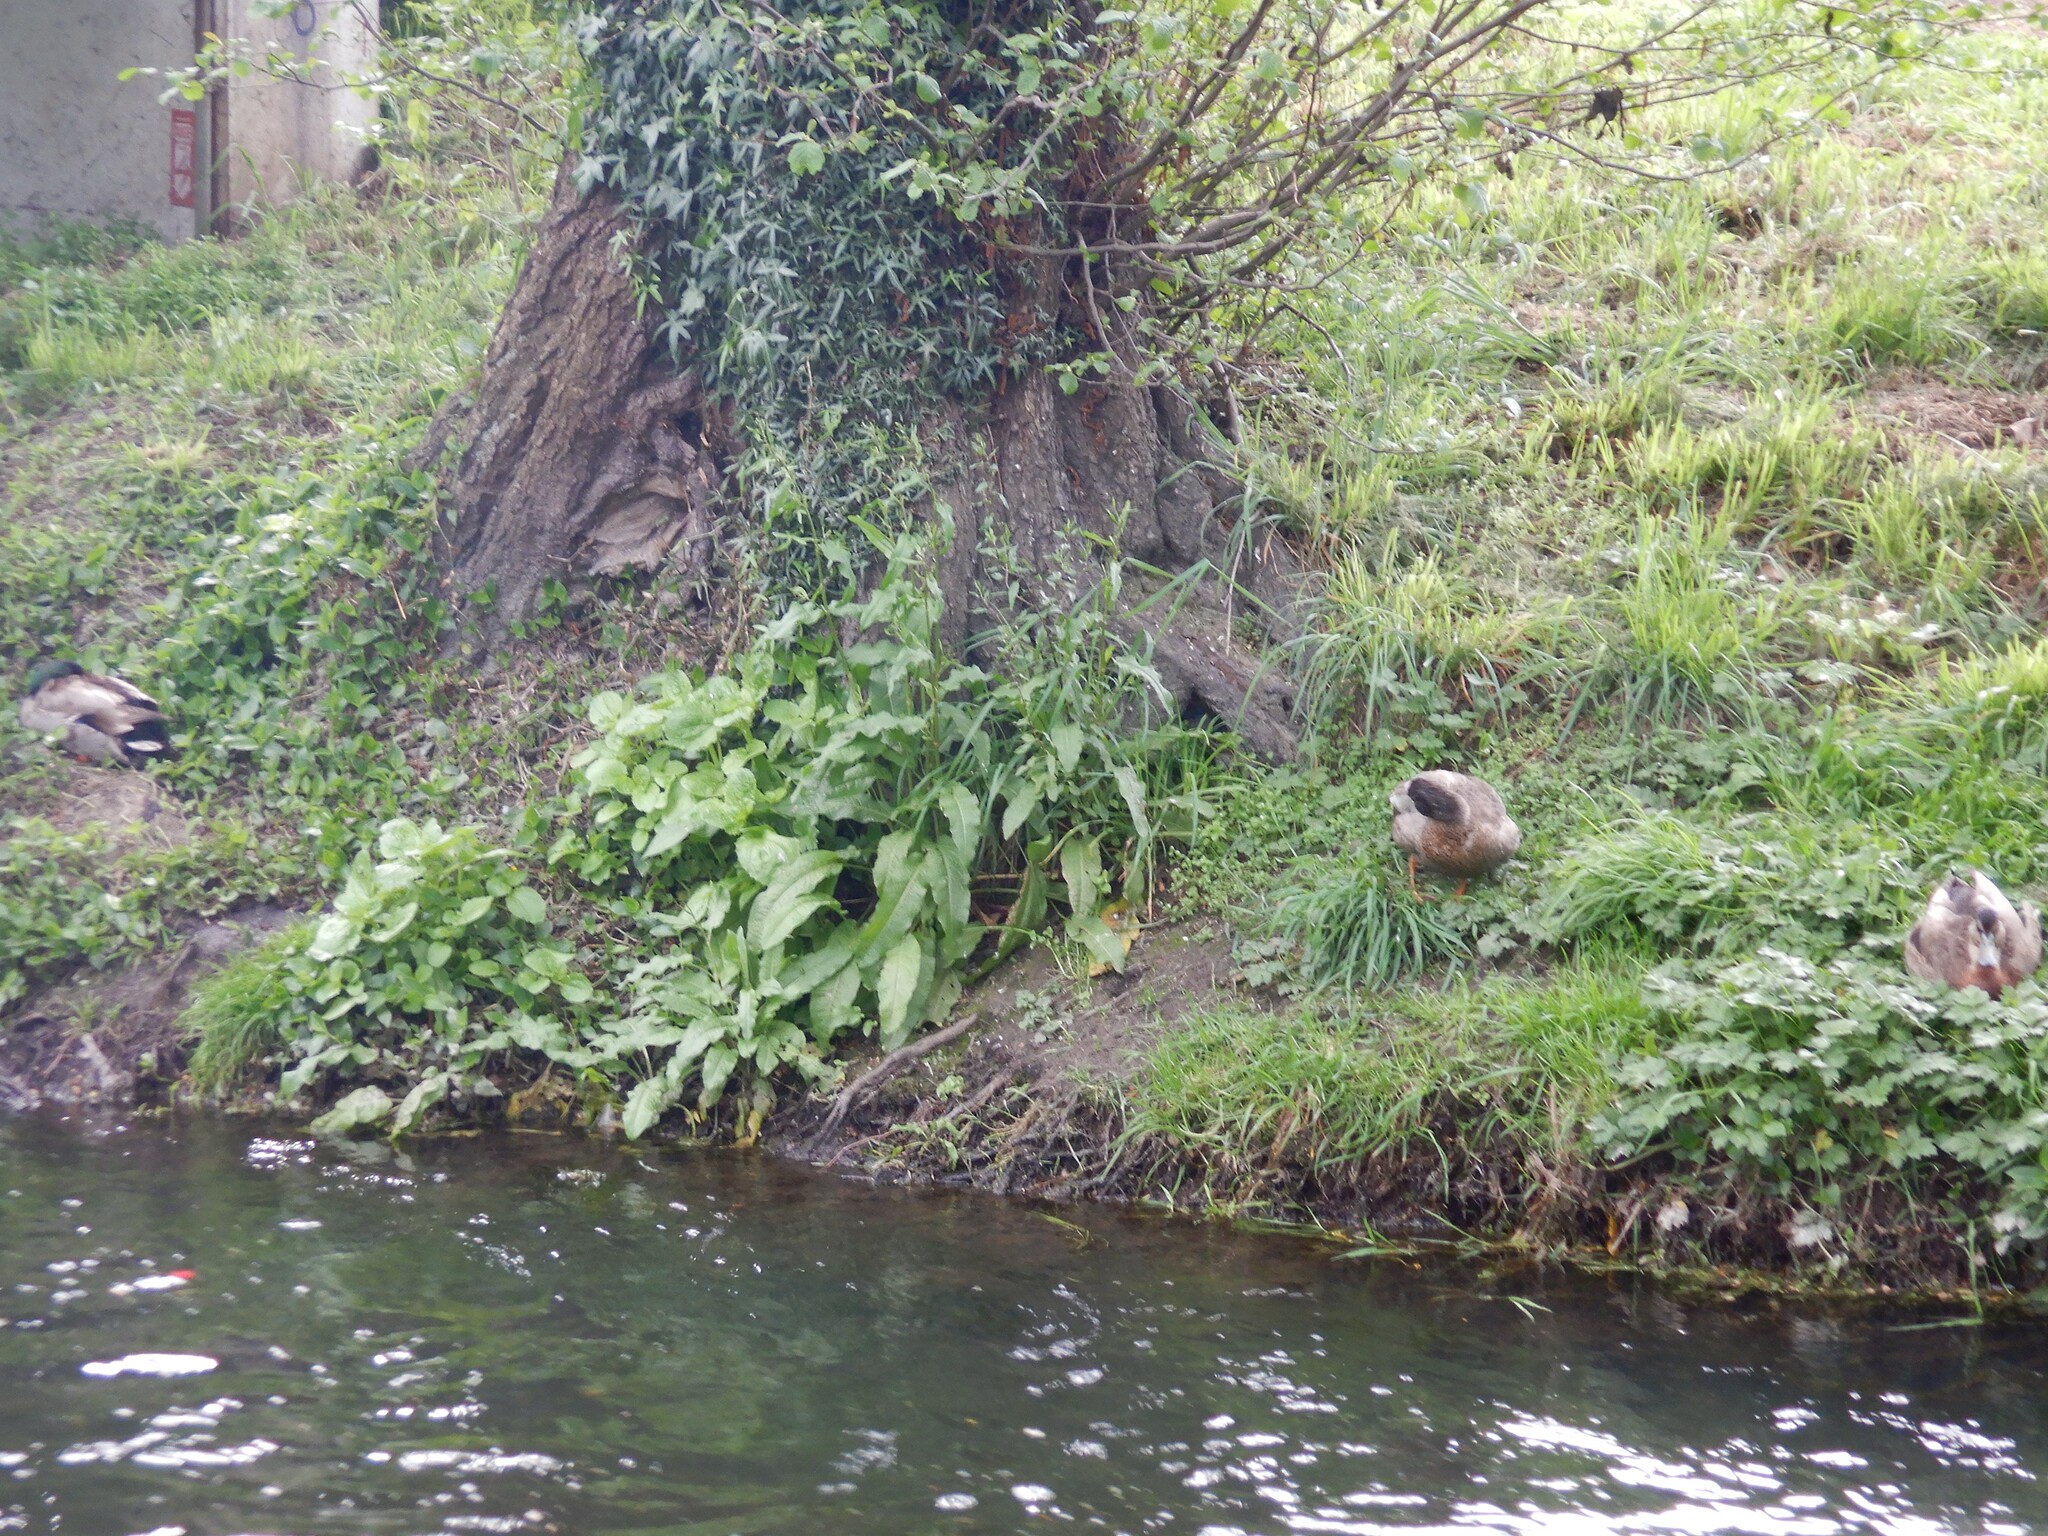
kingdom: Animalia
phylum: Chordata
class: Aves
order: Anseriformes
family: Anatidae
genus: Anas
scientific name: Anas
